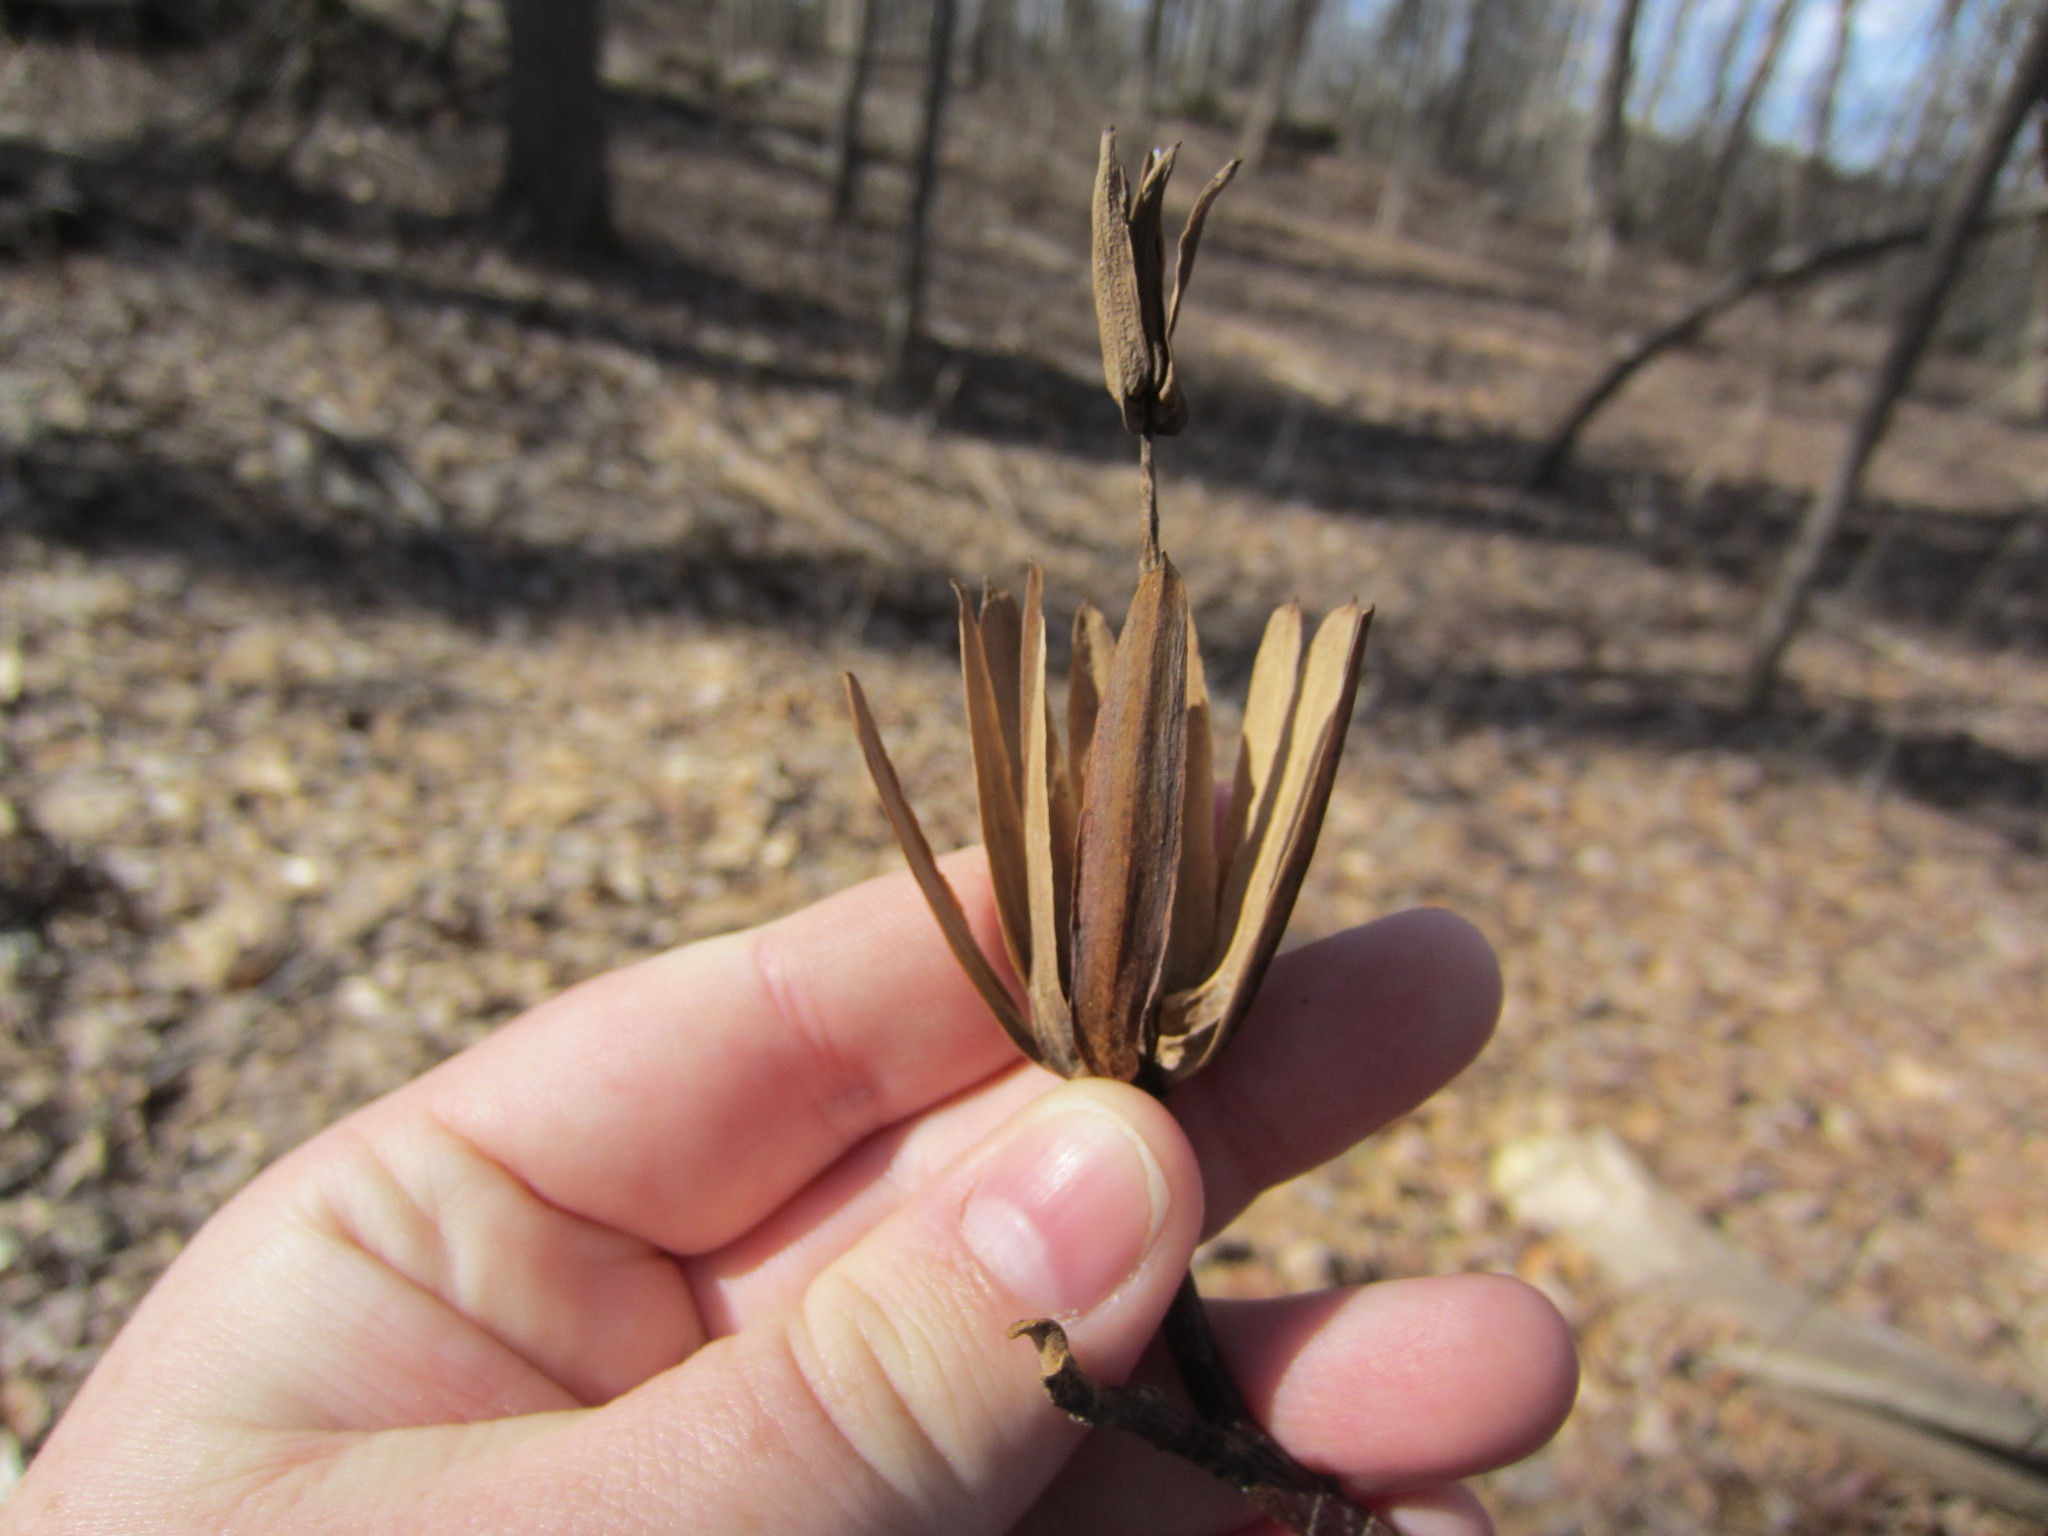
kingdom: Plantae
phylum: Tracheophyta
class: Magnoliopsida
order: Magnoliales
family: Magnoliaceae
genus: Liriodendron
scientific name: Liriodendron tulipifera
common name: Tulip tree
